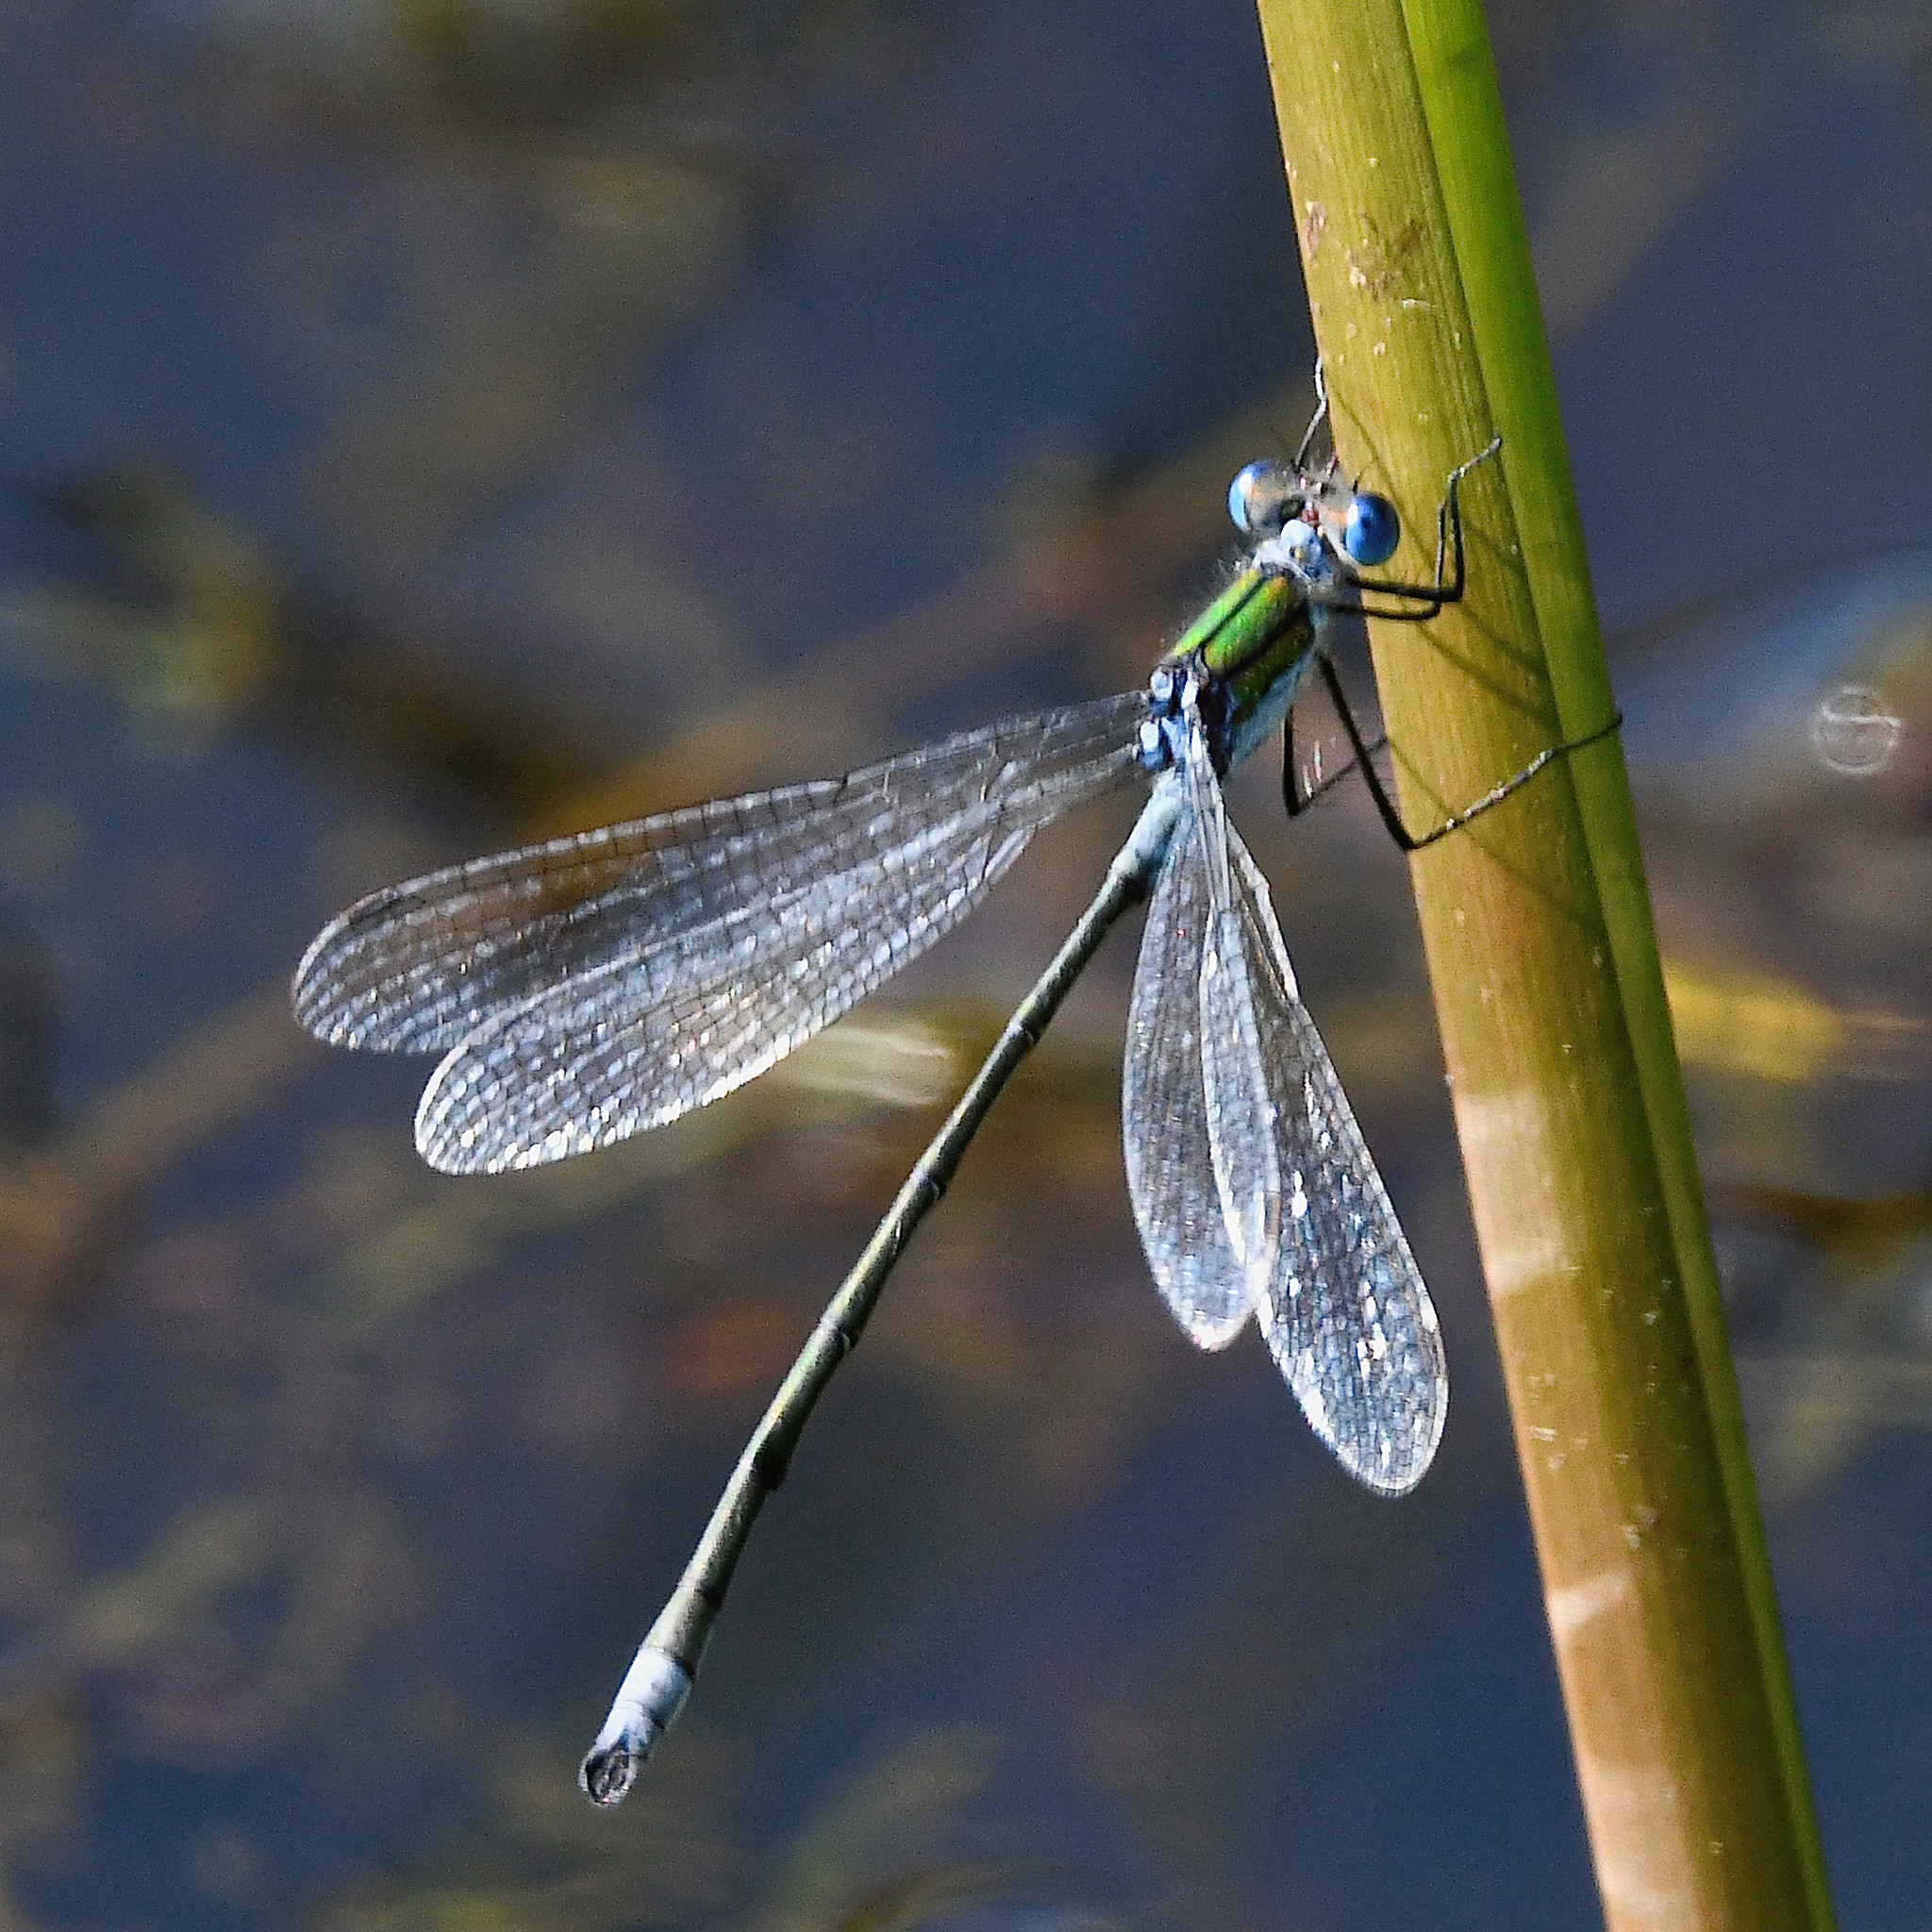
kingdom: Animalia
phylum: Arthropoda
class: Insecta
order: Odonata
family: Lestidae
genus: Lestes
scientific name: Lestes sponsa
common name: Common spreadwing
